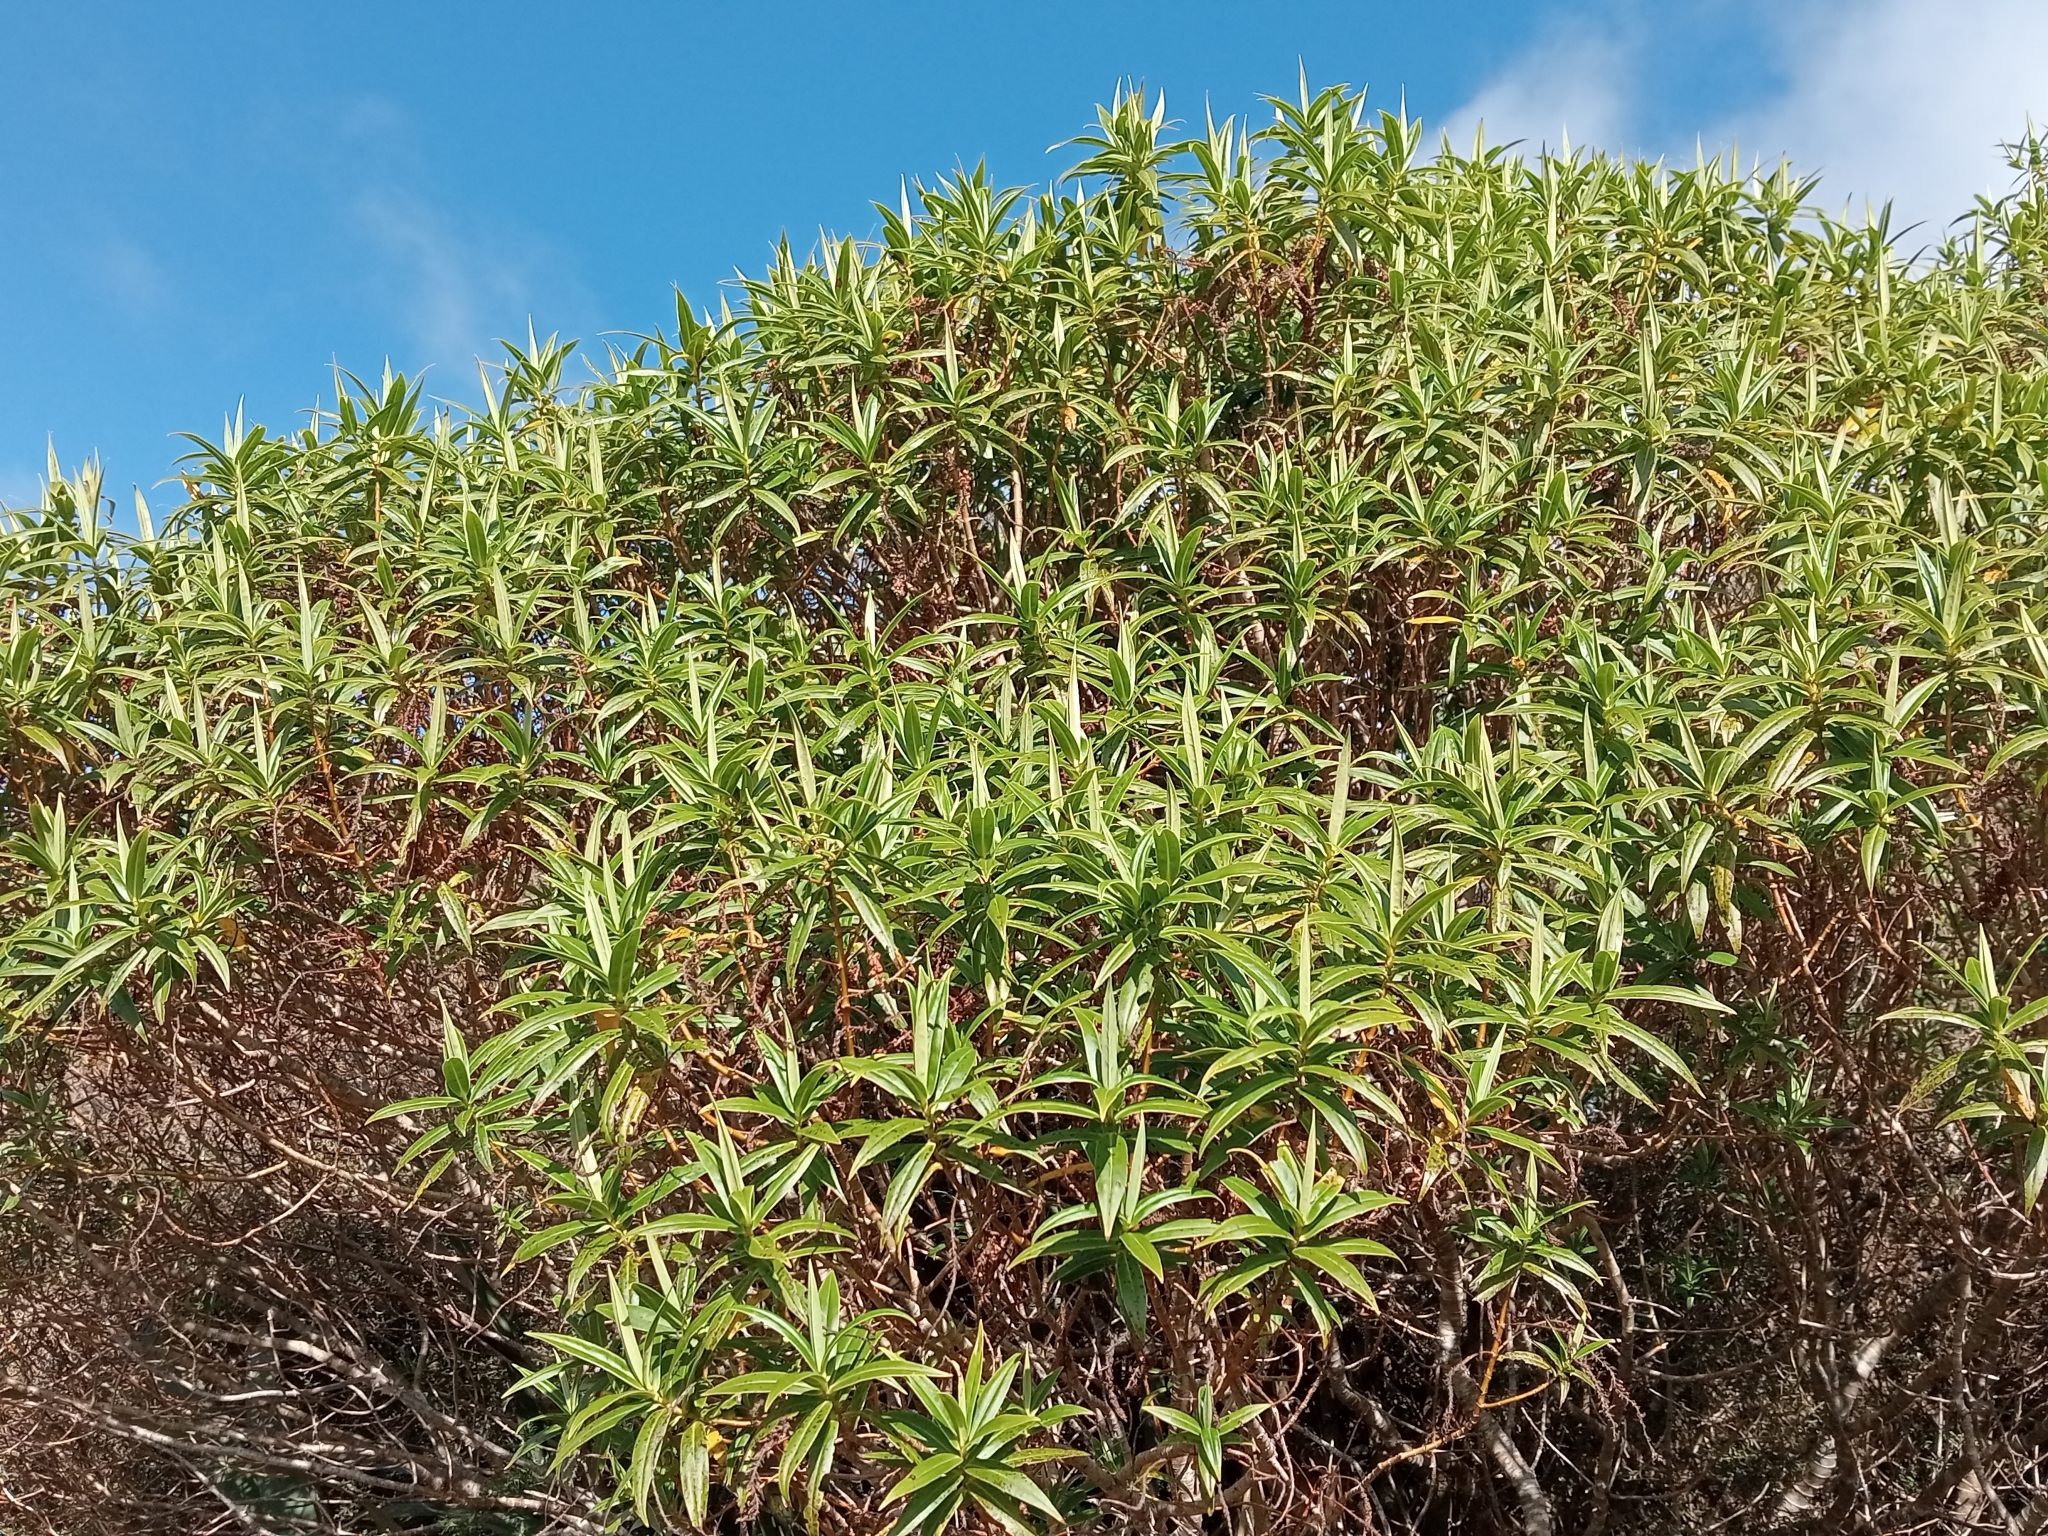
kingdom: Plantae
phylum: Tracheophyta
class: Magnoliopsida
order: Lamiales
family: Plantaginaceae
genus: Veronica
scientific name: Veronica salicifolia
